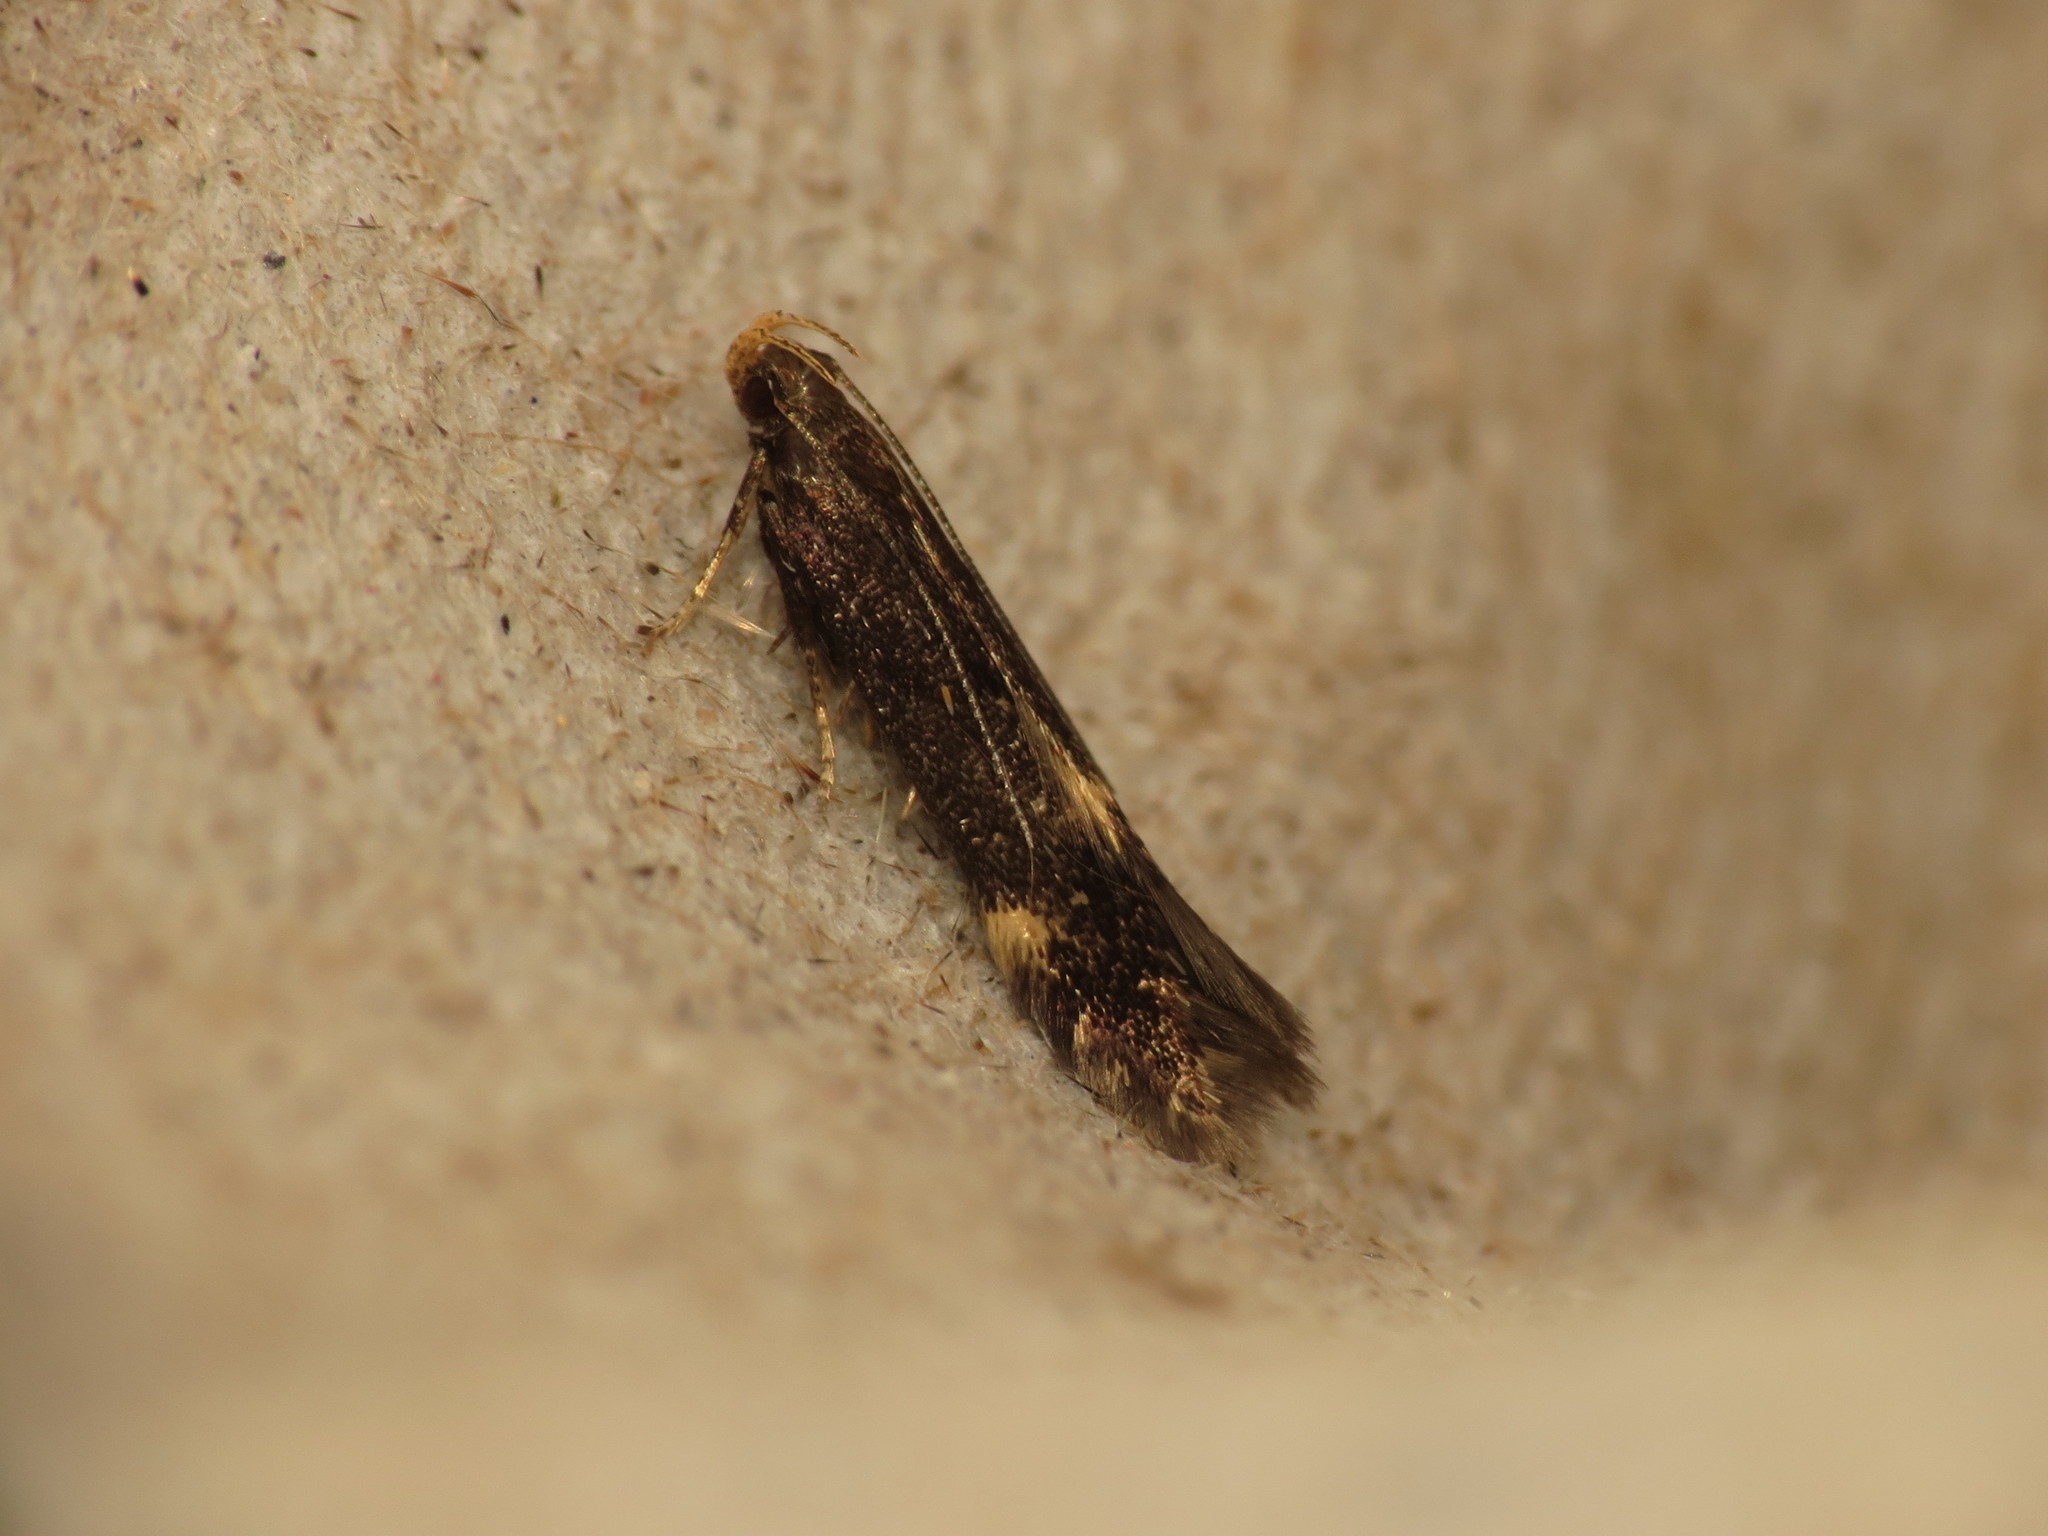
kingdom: Animalia
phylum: Arthropoda
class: Insecta
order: Lepidoptera
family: Gelechiidae
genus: Oxypteryx
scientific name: Oxypteryx atrella
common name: Two-spotted neb
